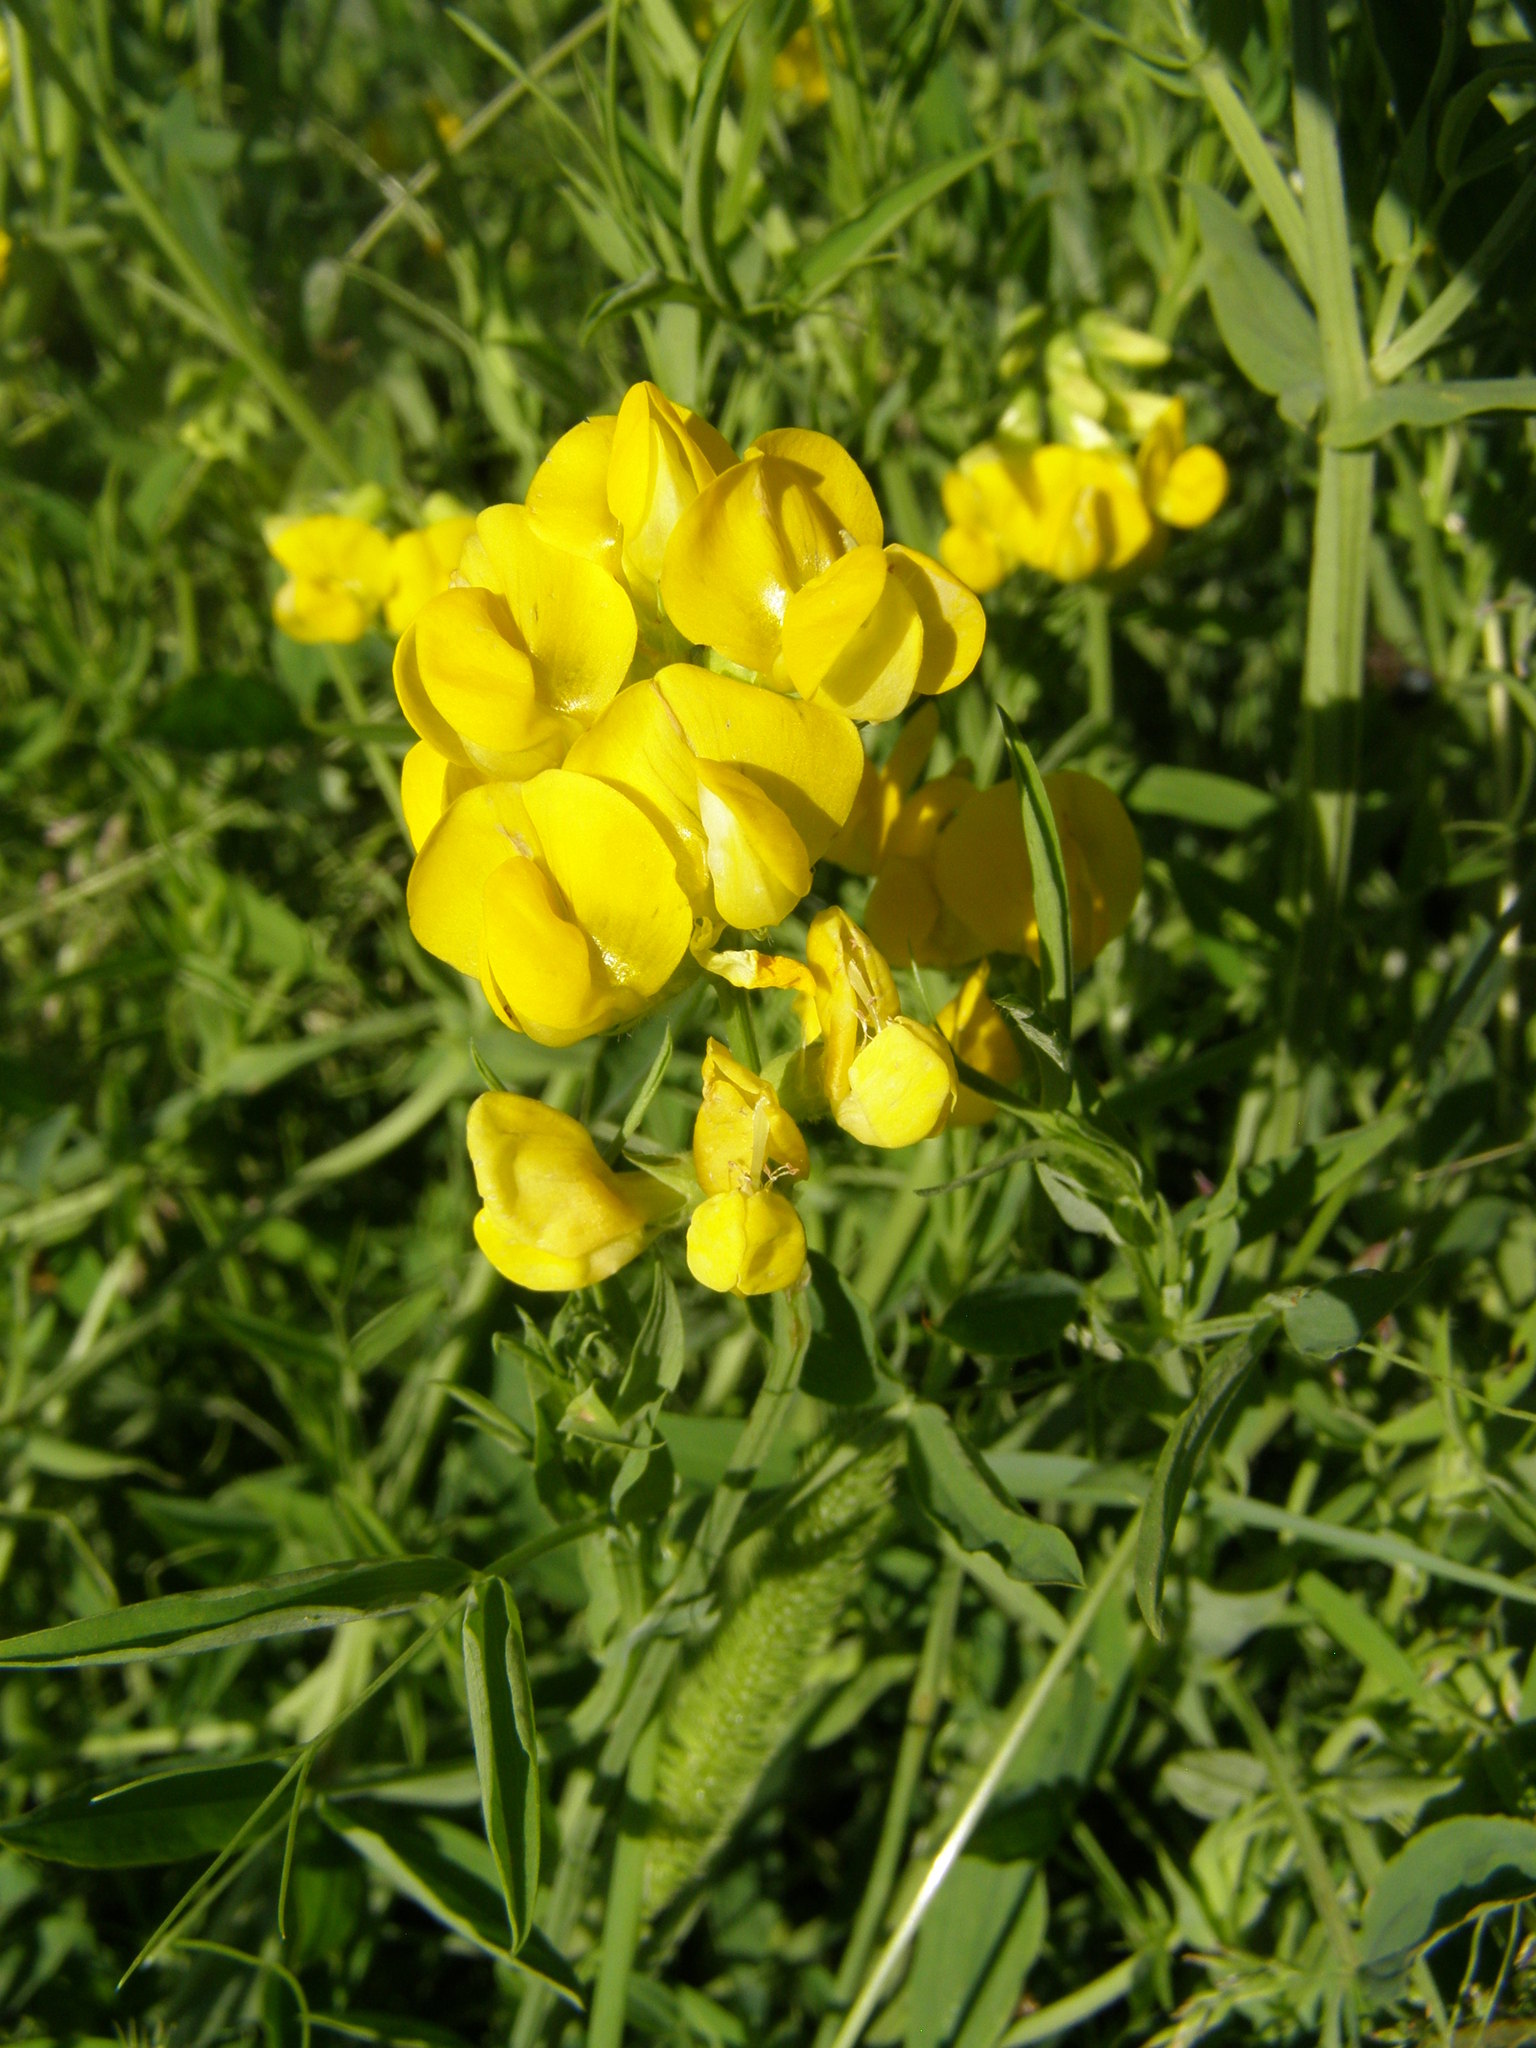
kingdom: Plantae
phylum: Tracheophyta
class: Magnoliopsida
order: Fabales
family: Fabaceae
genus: Lathyrus
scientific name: Lathyrus pratensis
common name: Meadow vetchling
